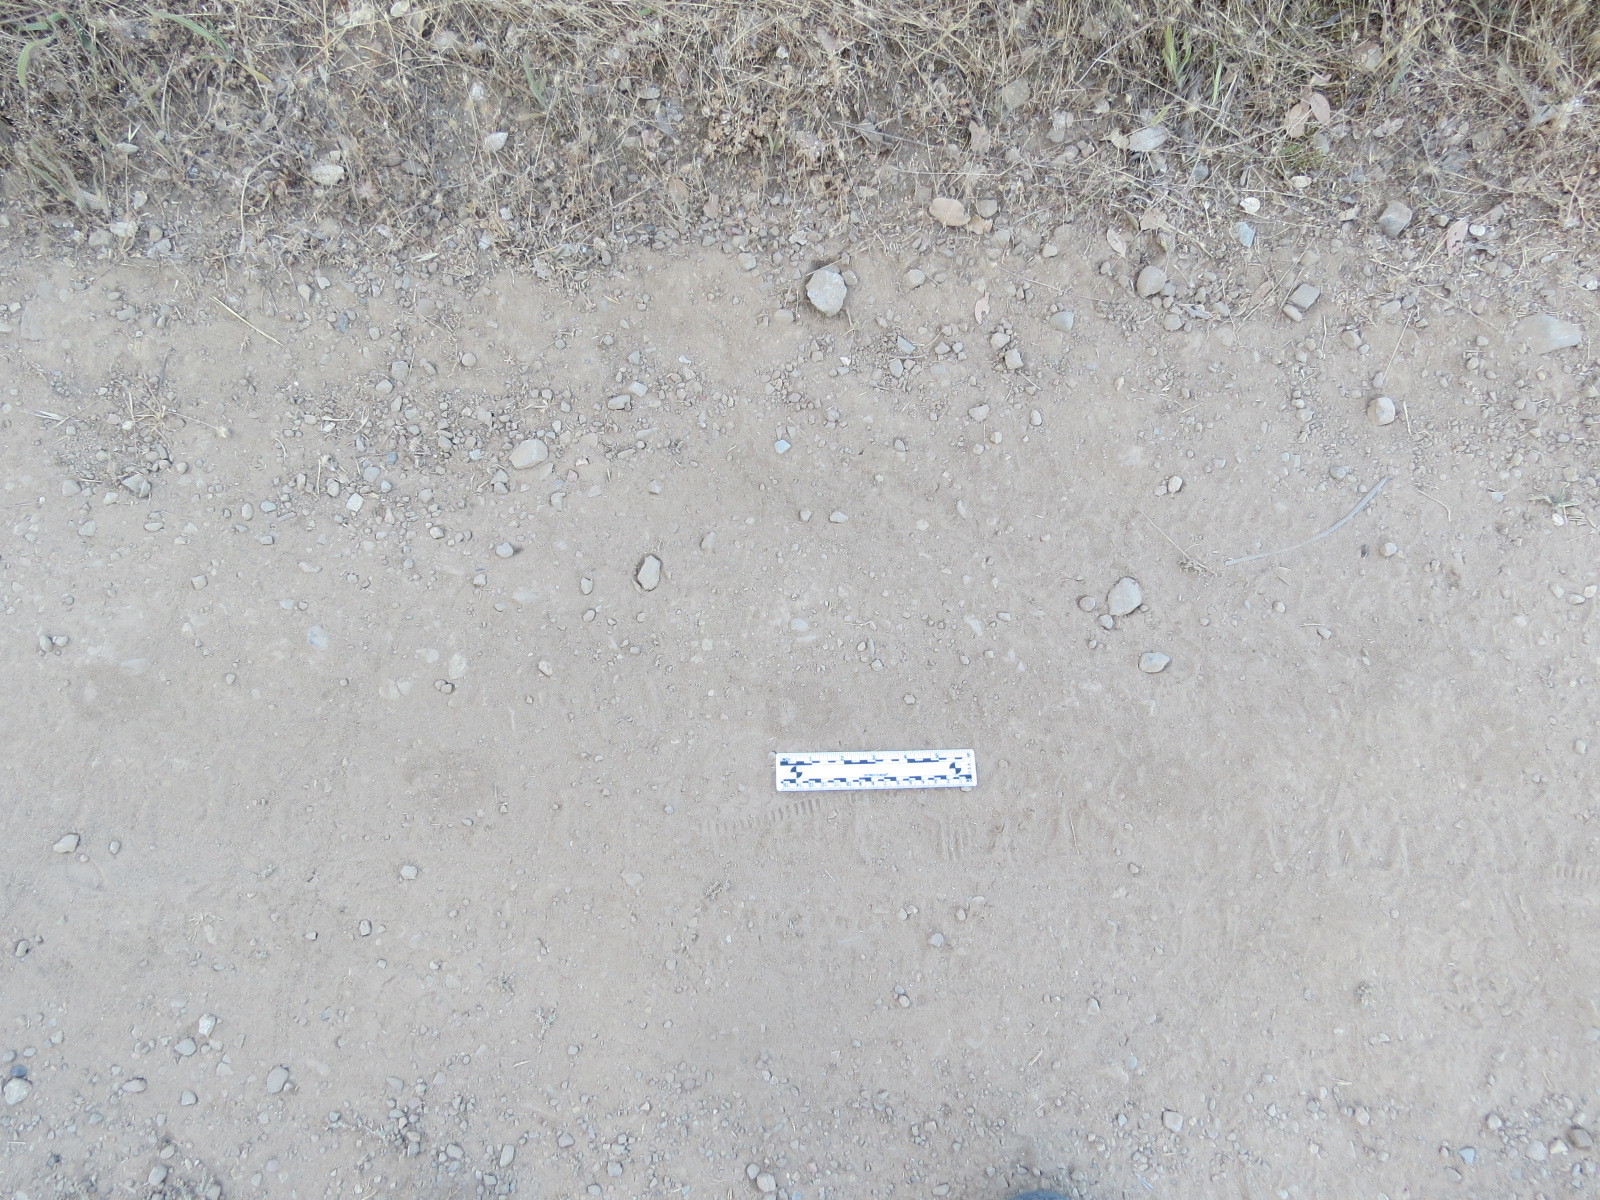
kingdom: Animalia
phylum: Chordata
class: Mammalia
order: Carnivora
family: Canidae
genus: Urocyon
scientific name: Urocyon cinereoargenteus
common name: Gray fox
